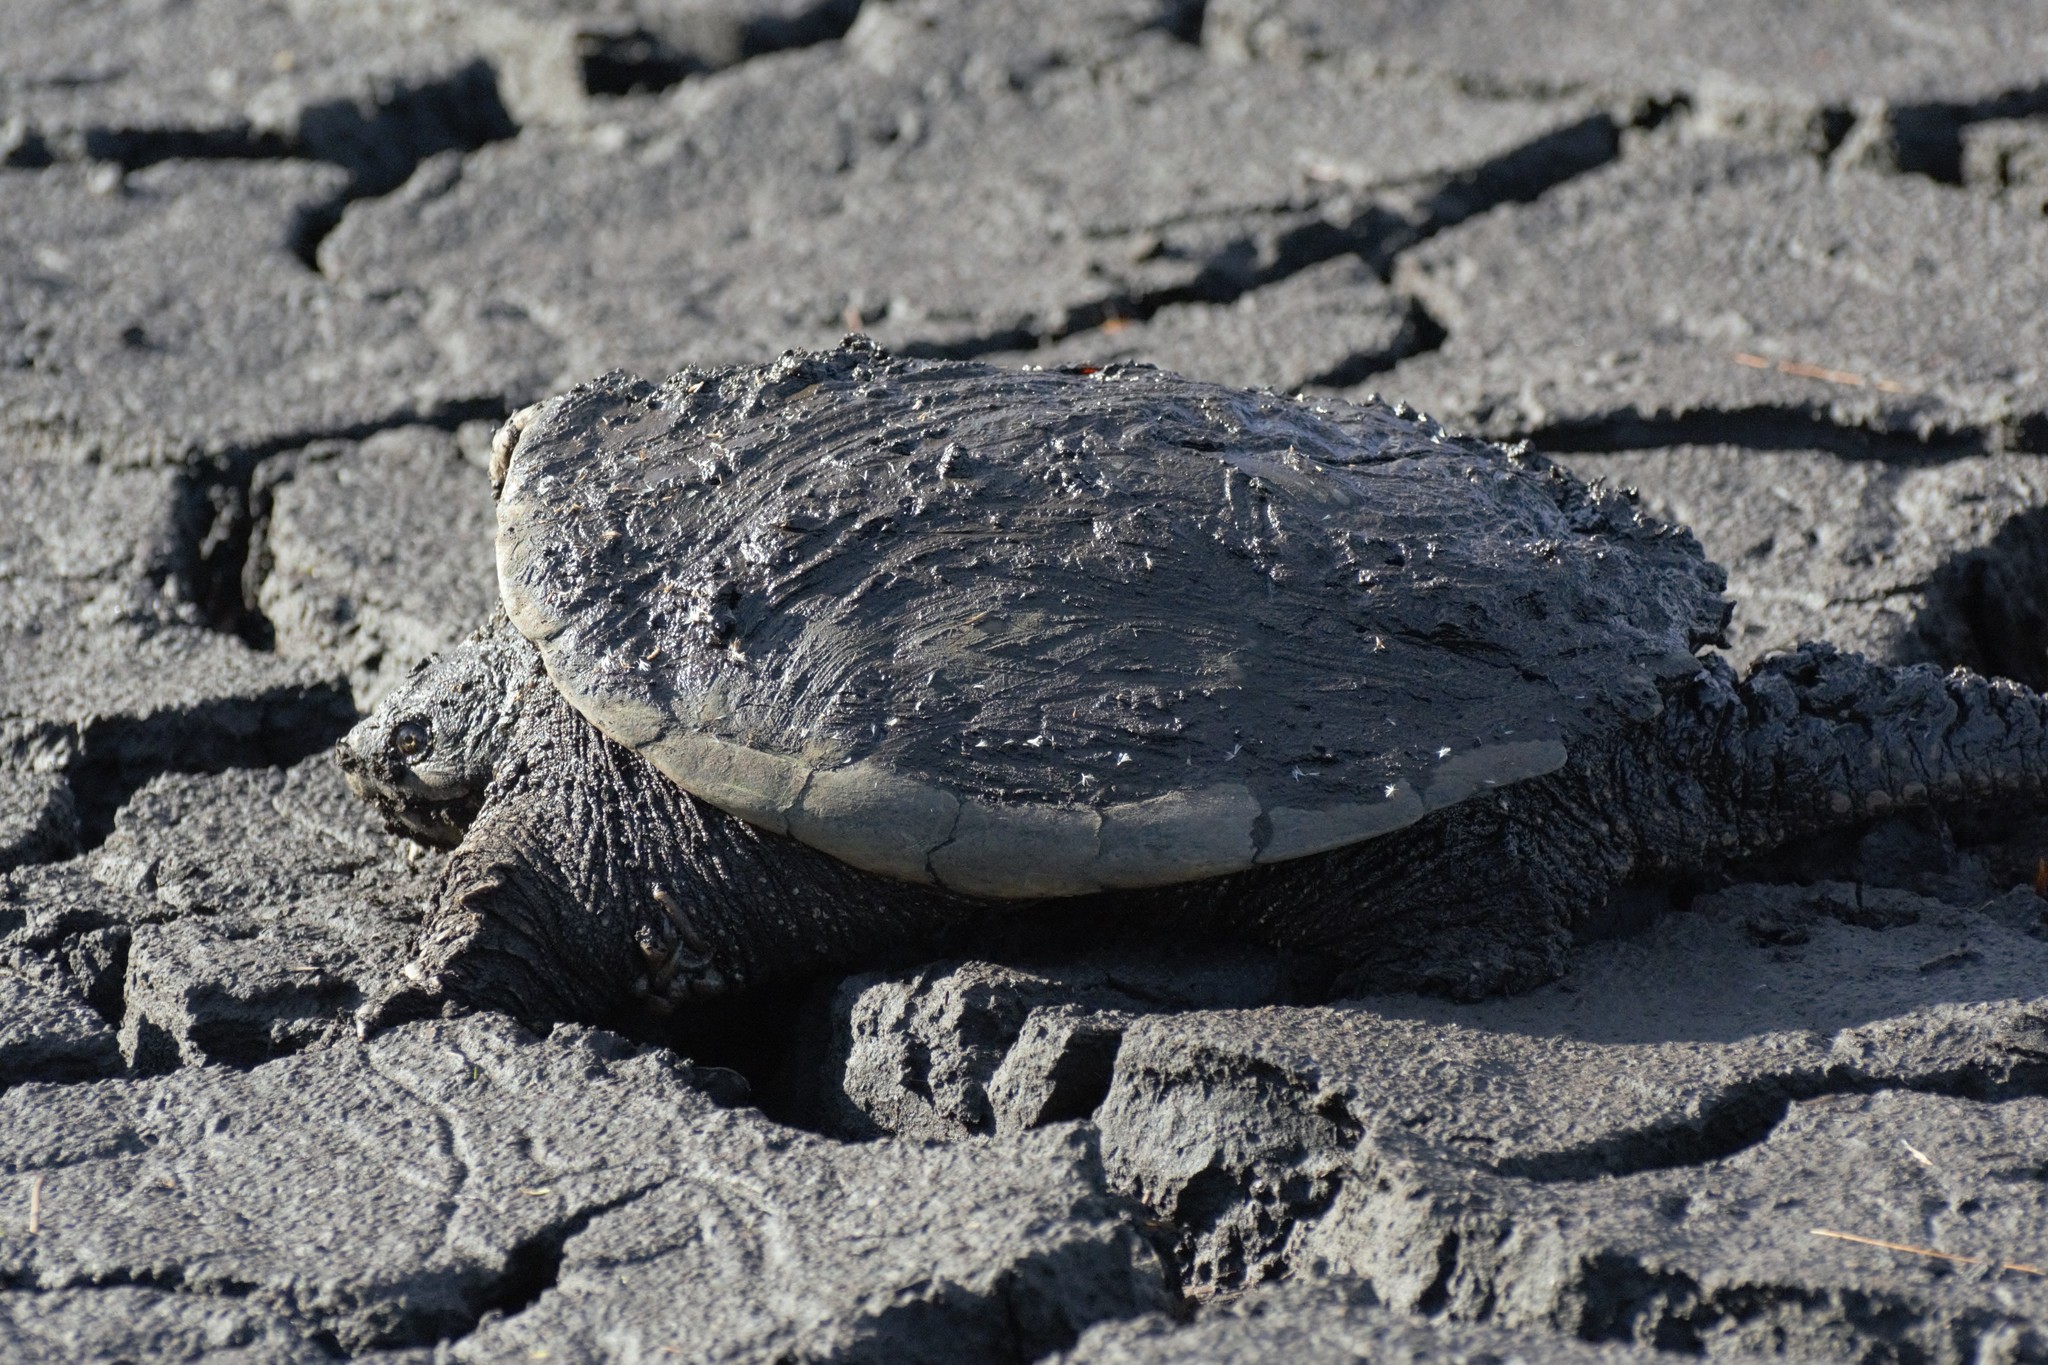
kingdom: Animalia
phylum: Chordata
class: Testudines
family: Chelydridae
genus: Chelydra
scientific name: Chelydra serpentina
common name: Common snapping turtle
